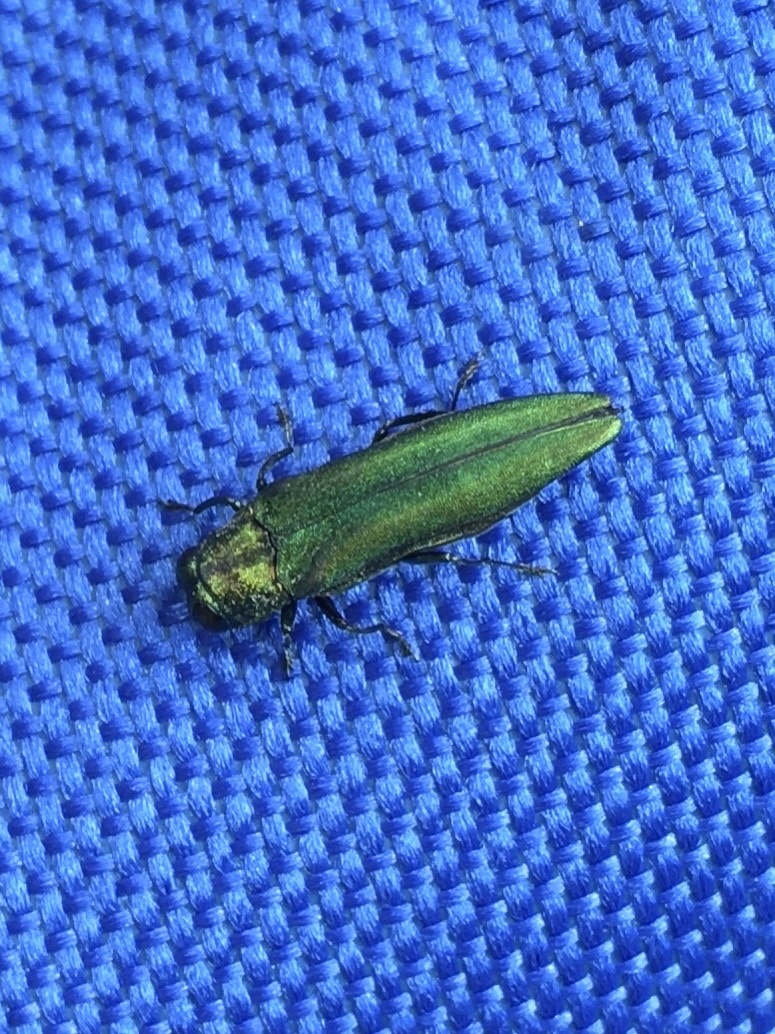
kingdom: Animalia
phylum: Arthropoda
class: Insecta
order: Coleoptera
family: Buprestidae
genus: Agrilus
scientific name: Agrilus planipennis
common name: Emerald ash borer
